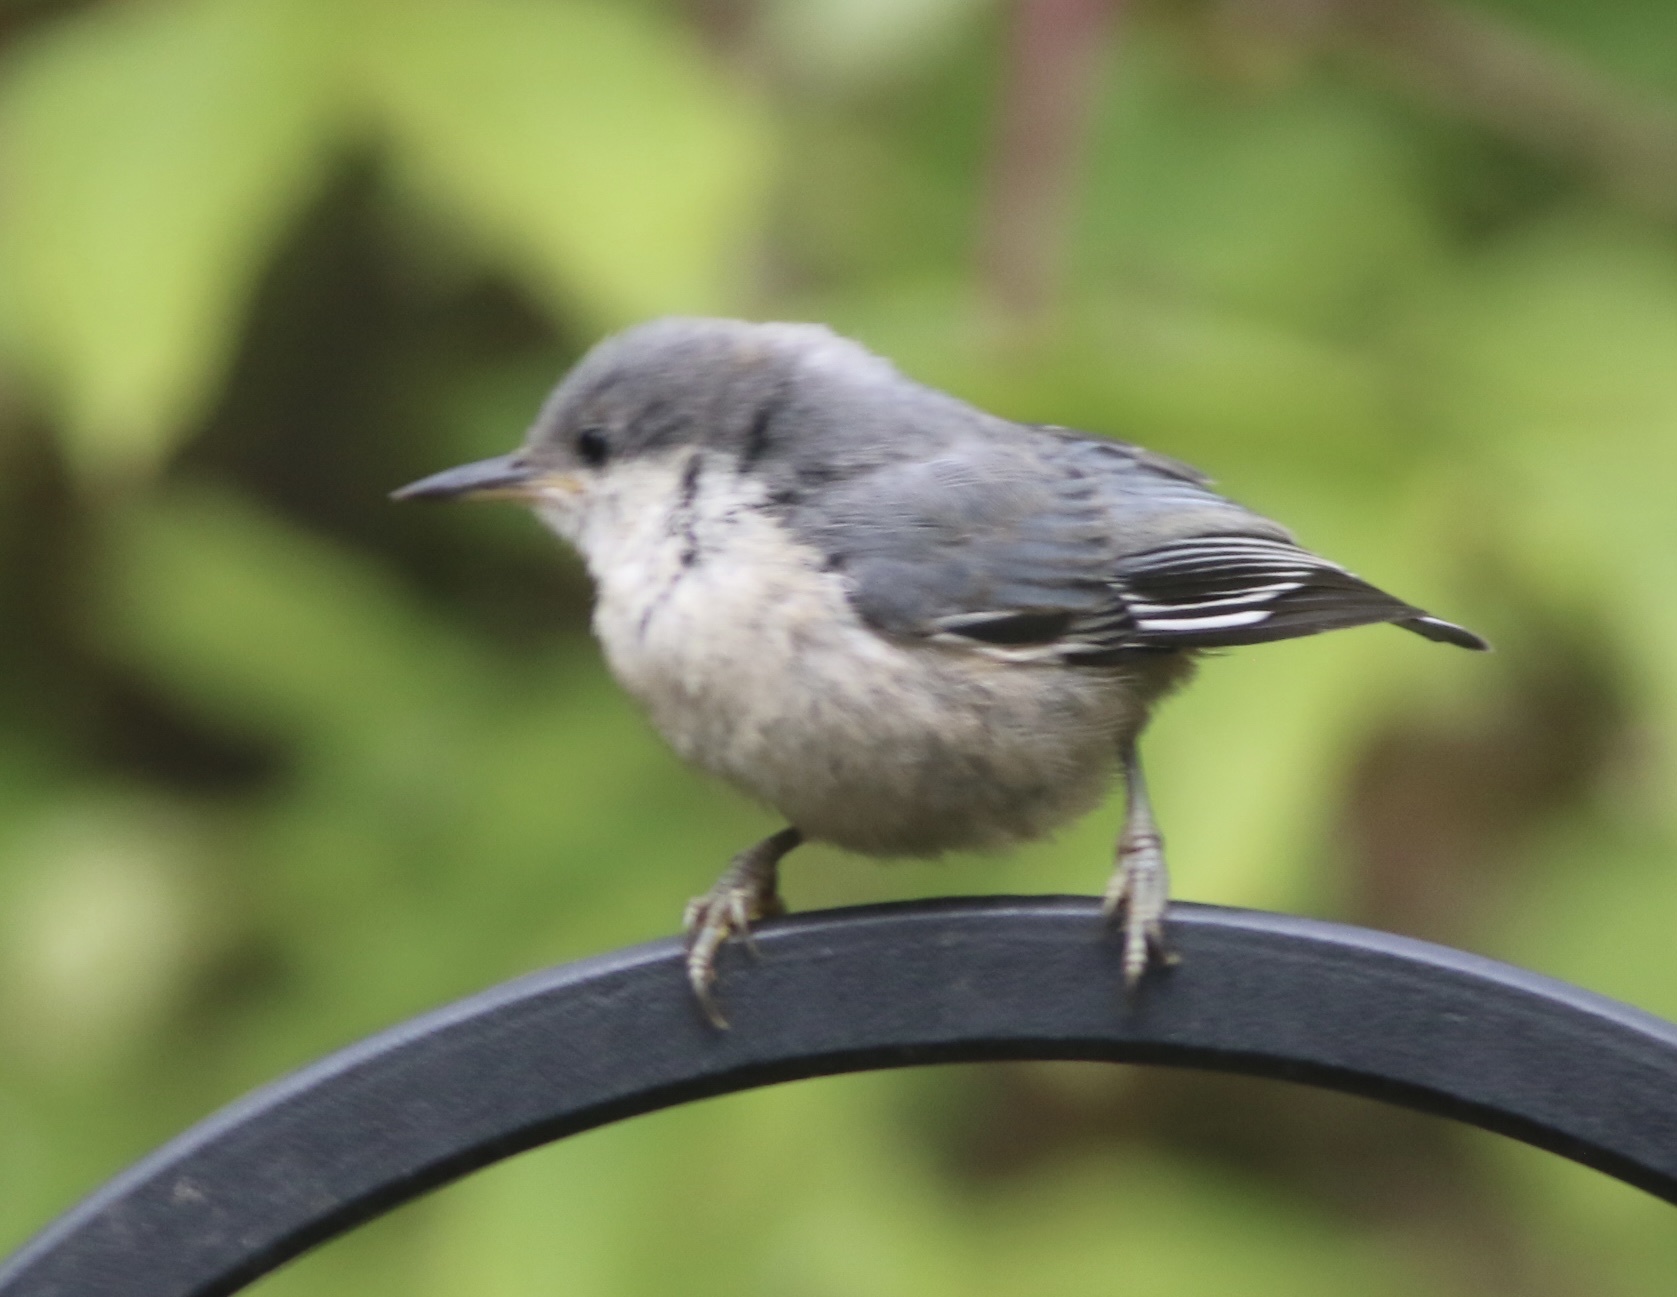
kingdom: Animalia
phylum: Chordata
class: Aves
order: Passeriformes
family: Sittidae
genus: Sitta
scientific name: Sitta pygmaea
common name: Pygmy nuthatch
